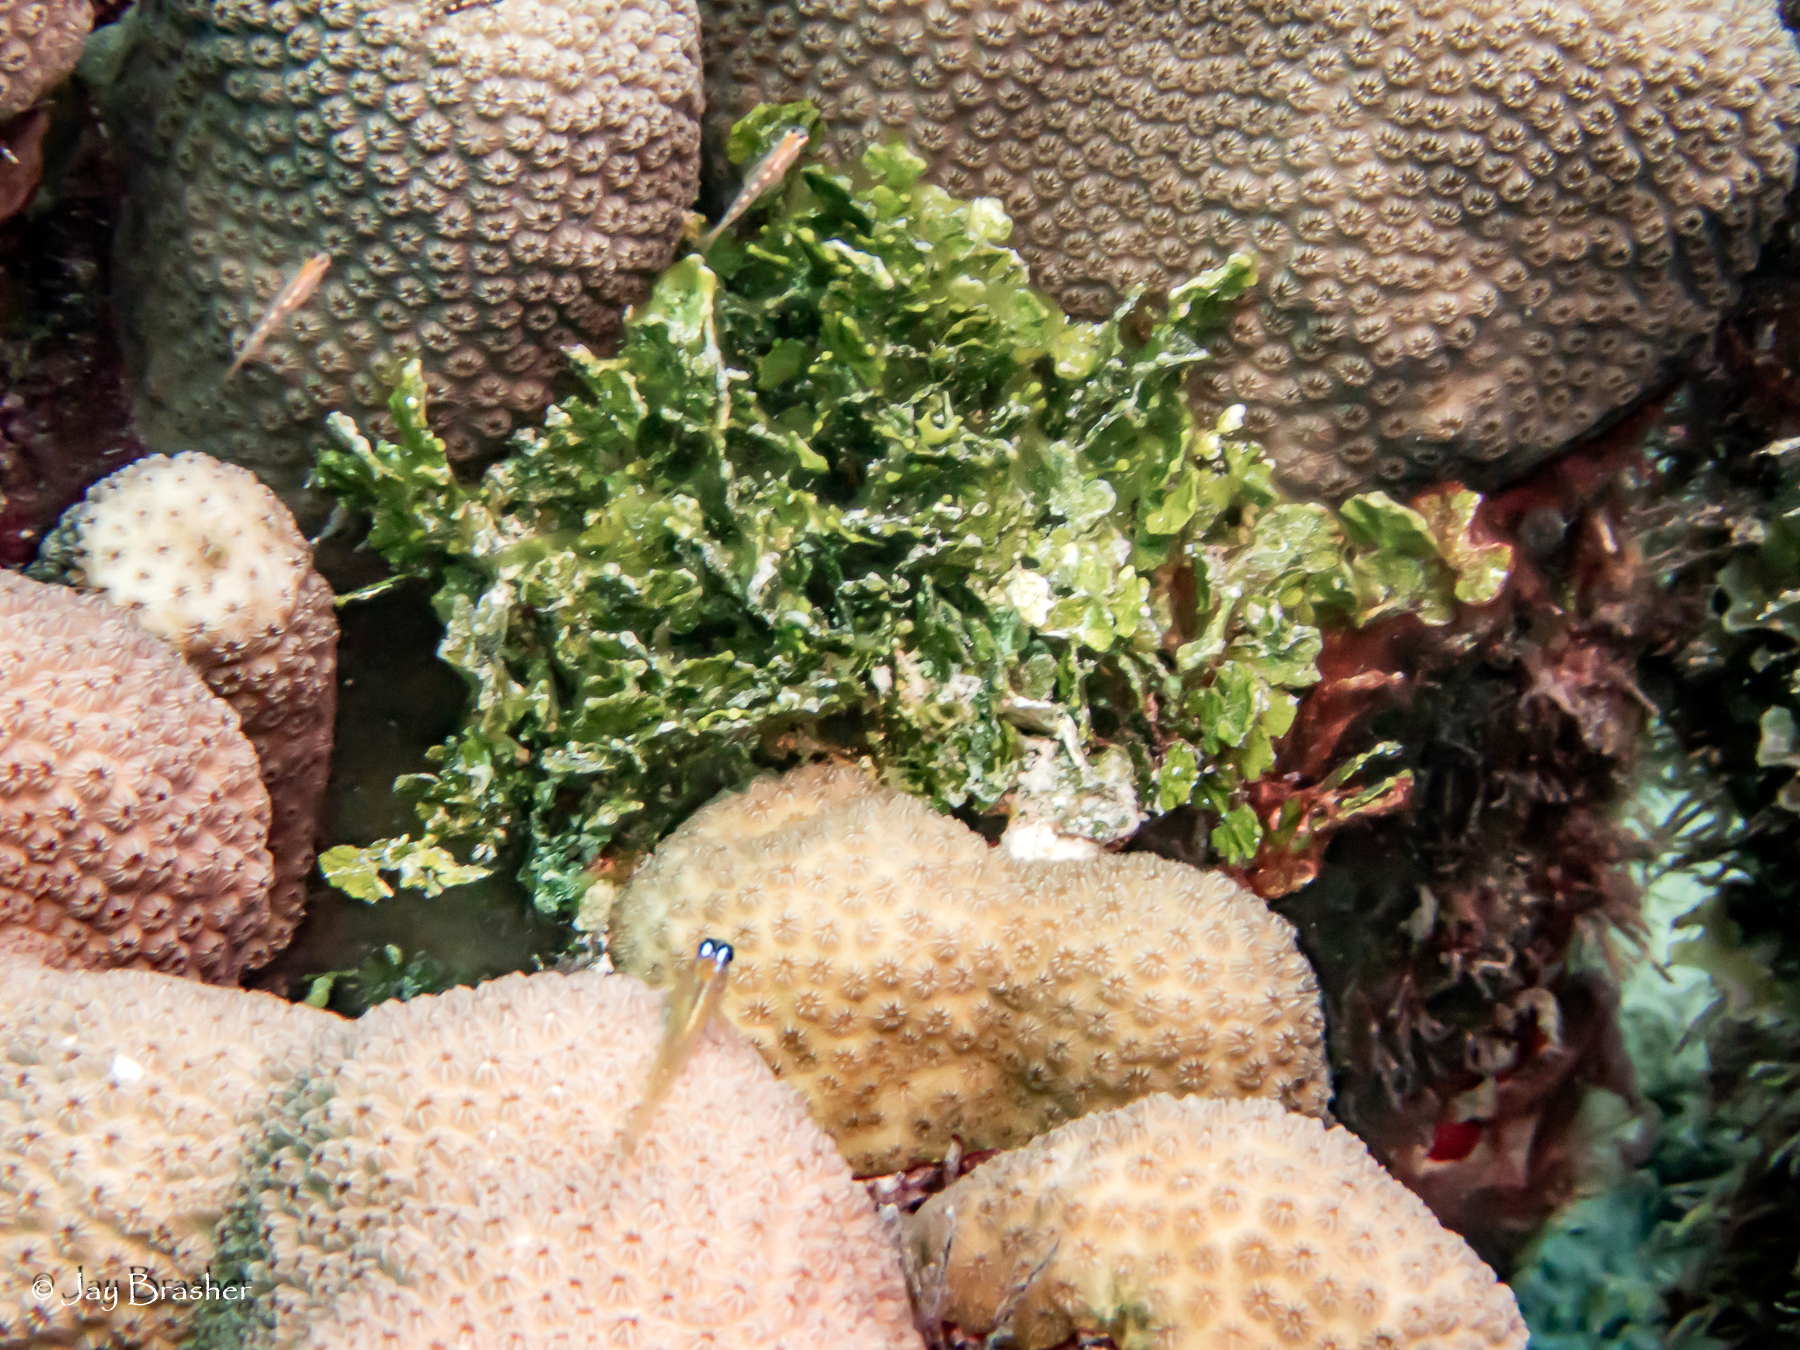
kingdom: Animalia
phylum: Chordata
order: Perciformes
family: Gobiidae
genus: Coryphopterus
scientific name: Coryphopterus lipernes
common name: Peppermint goby
